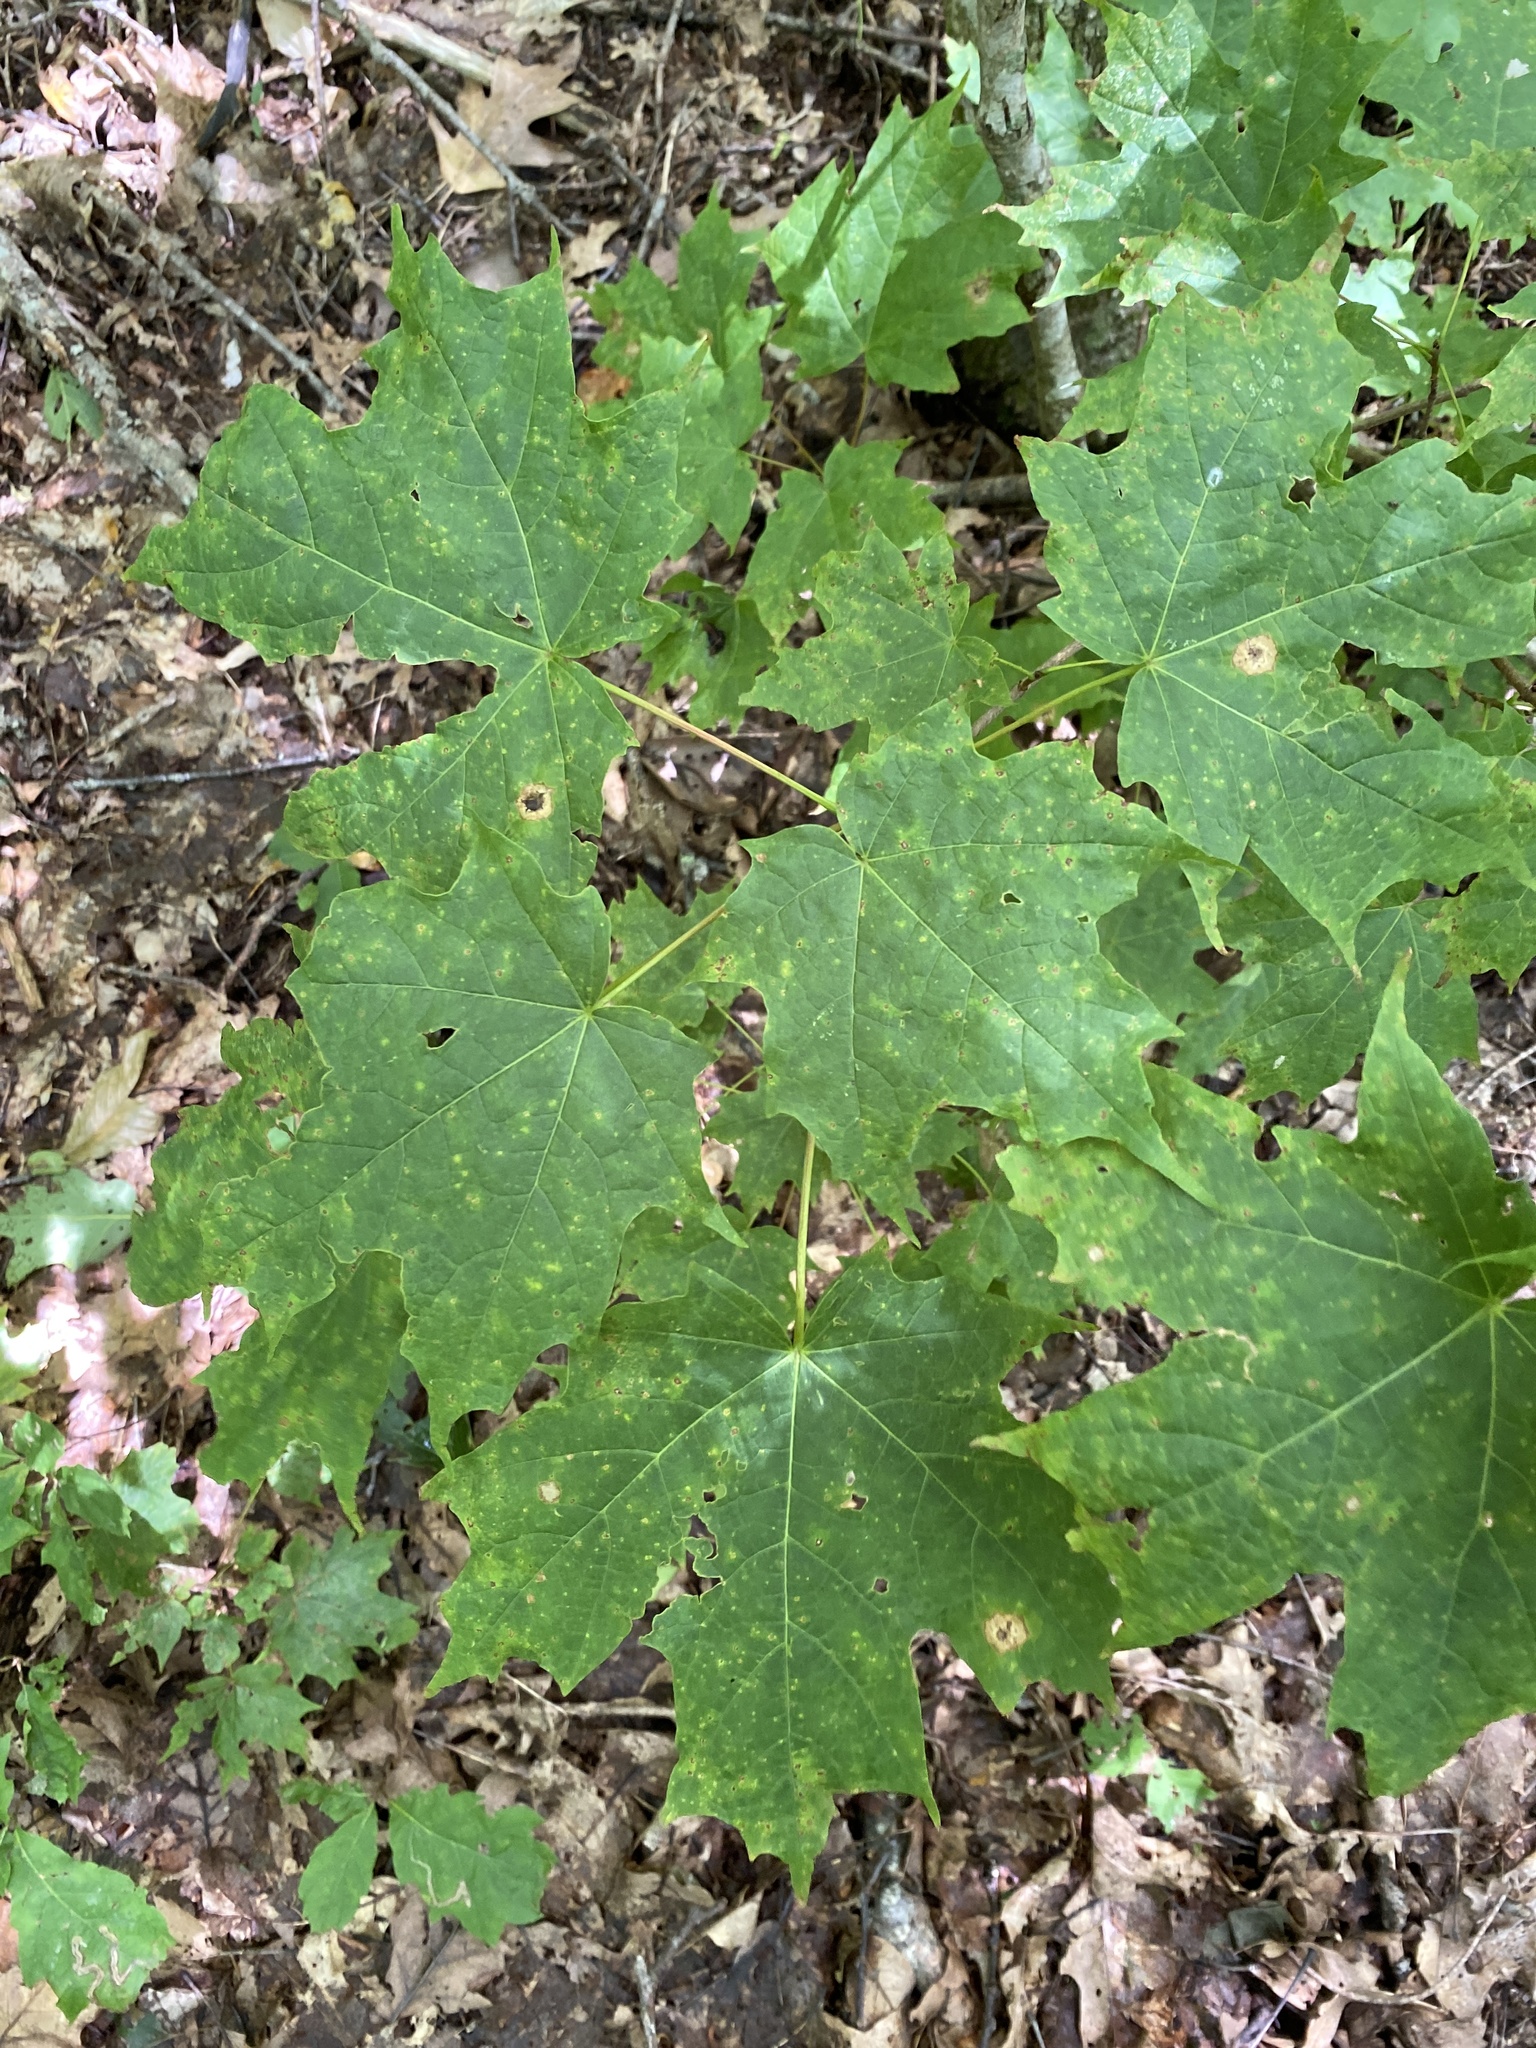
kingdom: Plantae
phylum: Tracheophyta
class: Magnoliopsida
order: Sapindales
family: Sapindaceae
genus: Acer
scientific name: Acer saccharum
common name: Sugar maple
